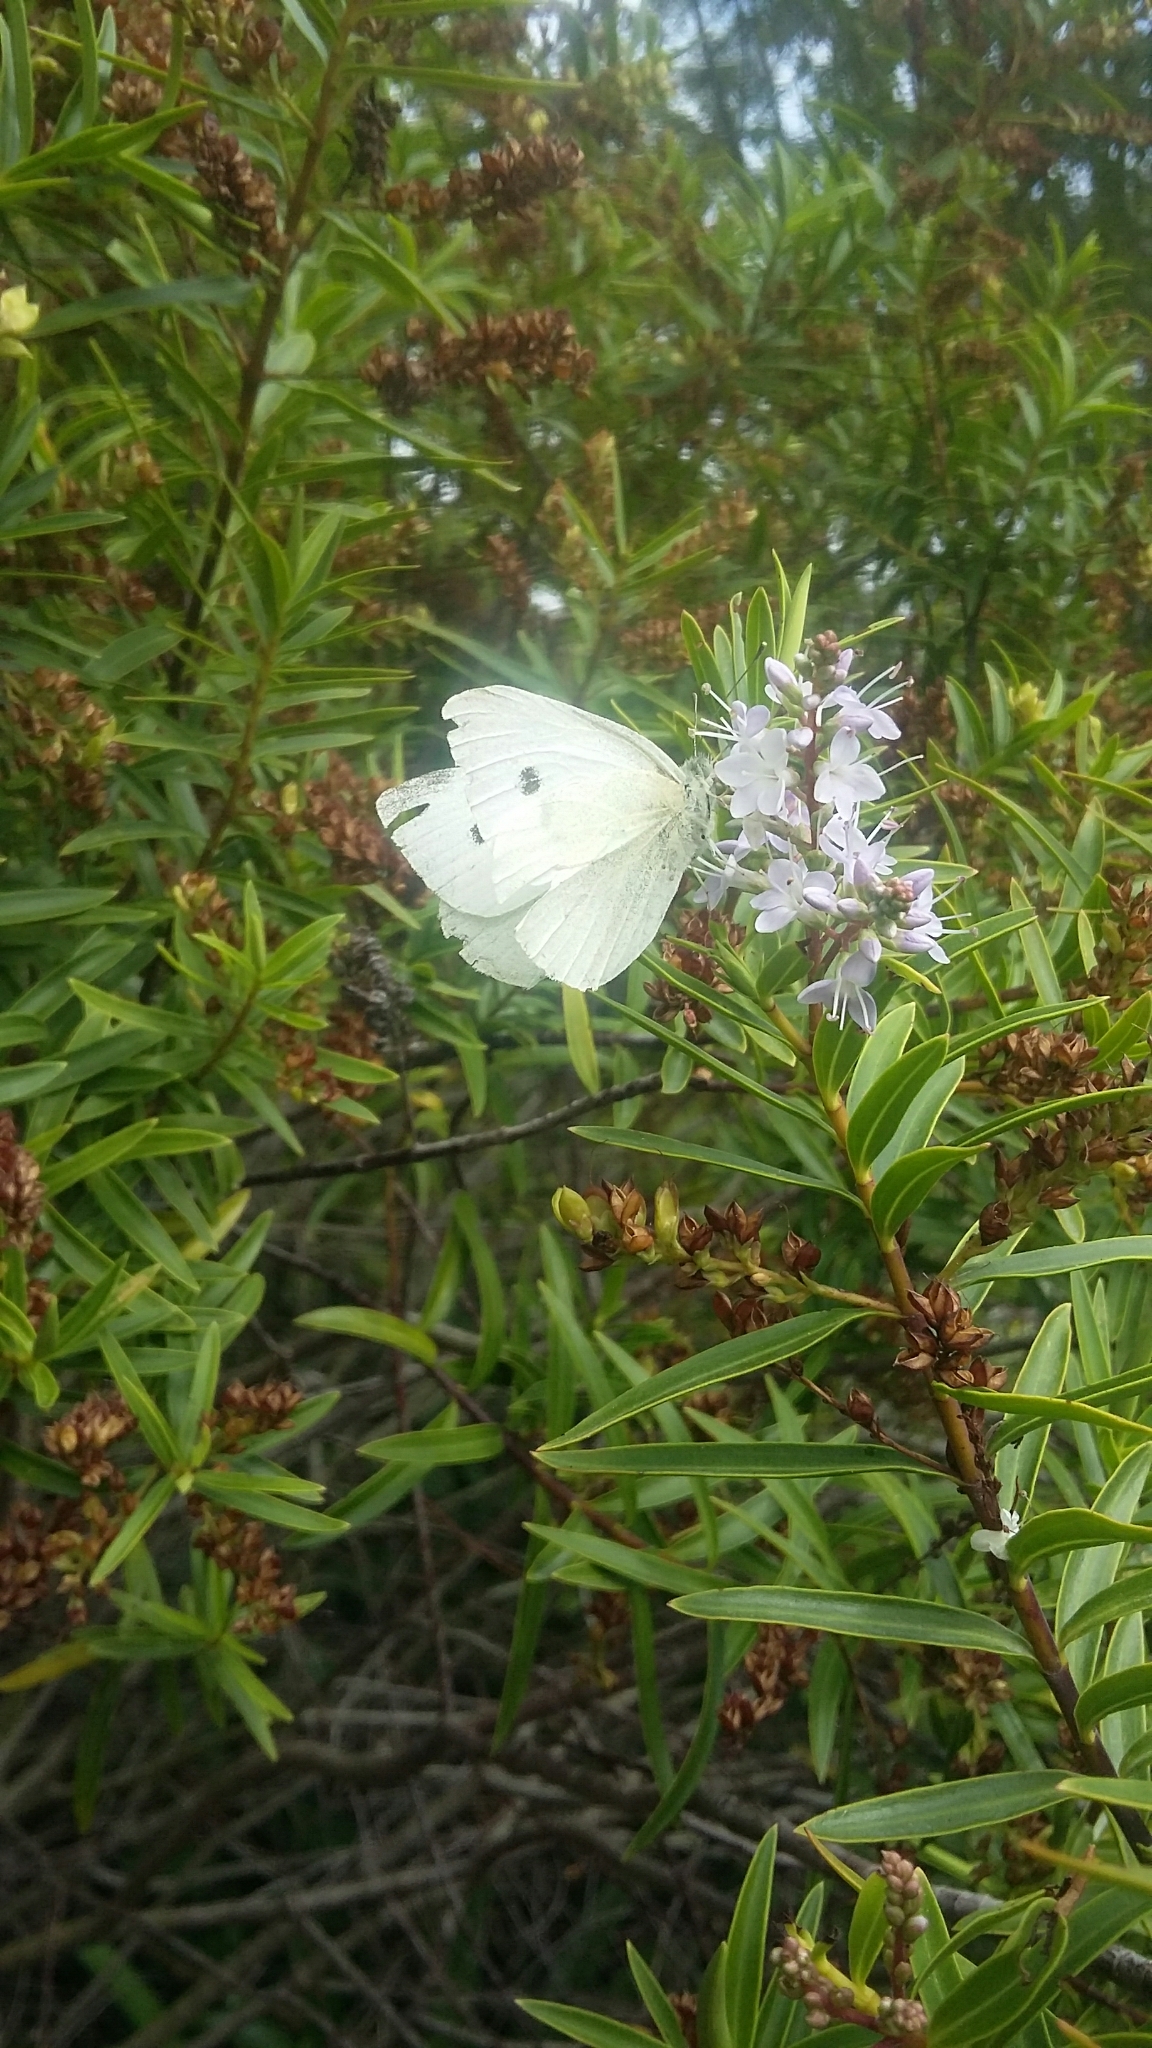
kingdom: Animalia
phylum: Arthropoda
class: Insecta
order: Lepidoptera
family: Pieridae
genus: Pieris
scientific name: Pieris rapae
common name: Small white
